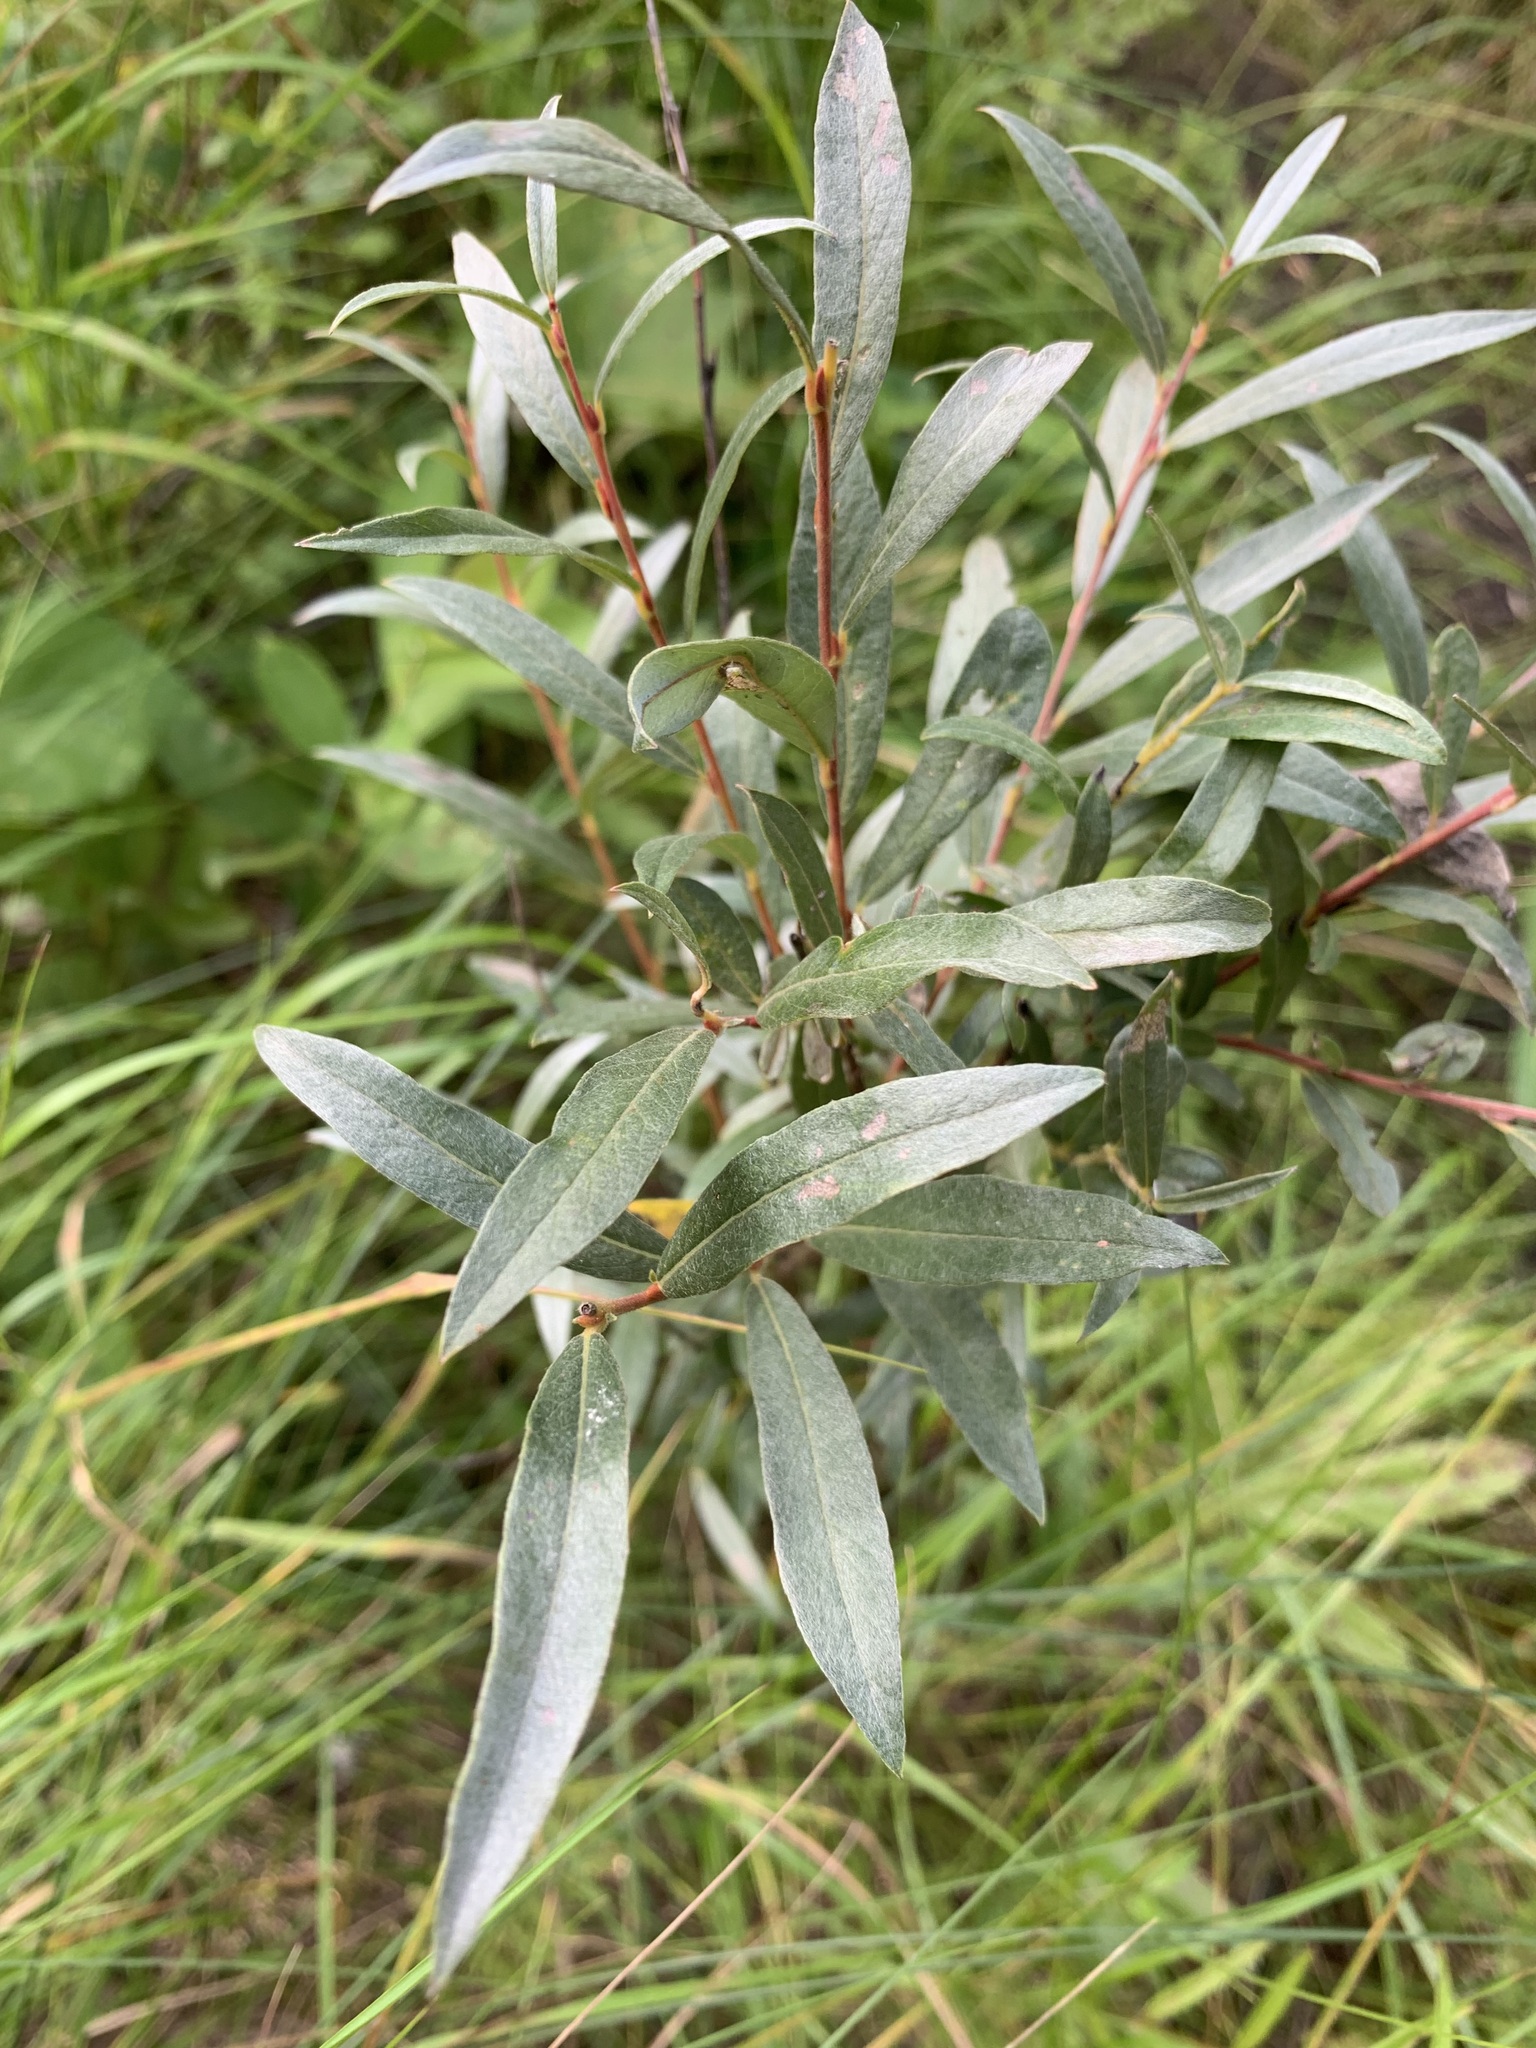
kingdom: Plantae
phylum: Tracheophyta
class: Magnoliopsida
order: Malpighiales
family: Salicaceae
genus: Salix
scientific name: Salix rosmarinifolia
